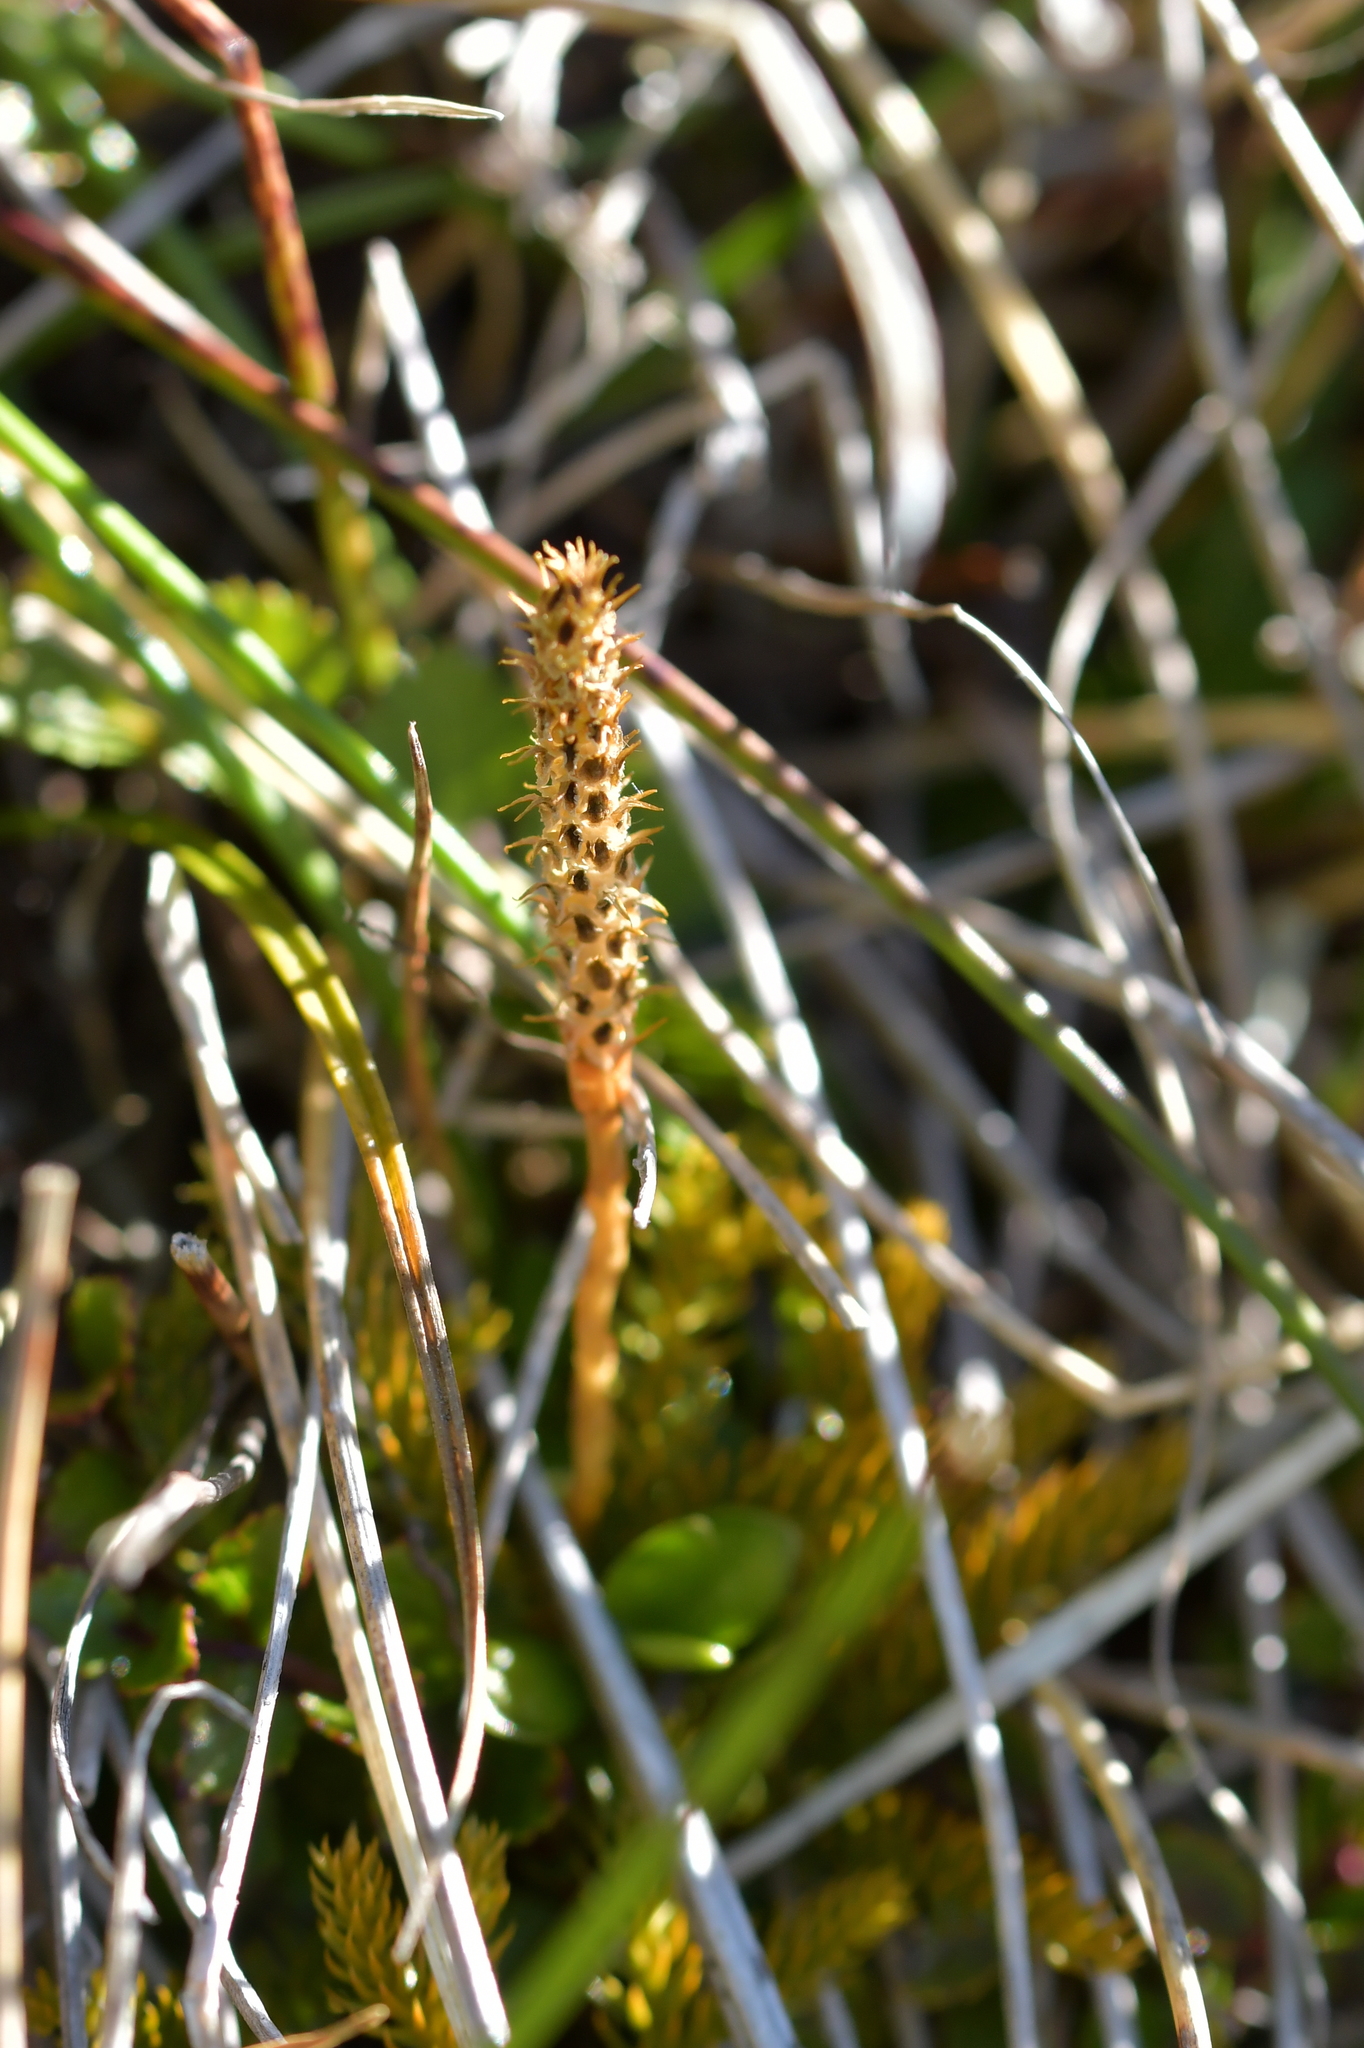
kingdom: Plantae
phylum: Tracheophyta
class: Lycopodiopsida
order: Lycopodiales
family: Lycopodiaceae
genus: Austrolycopodium
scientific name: Austrolycopodium fastigiatum
